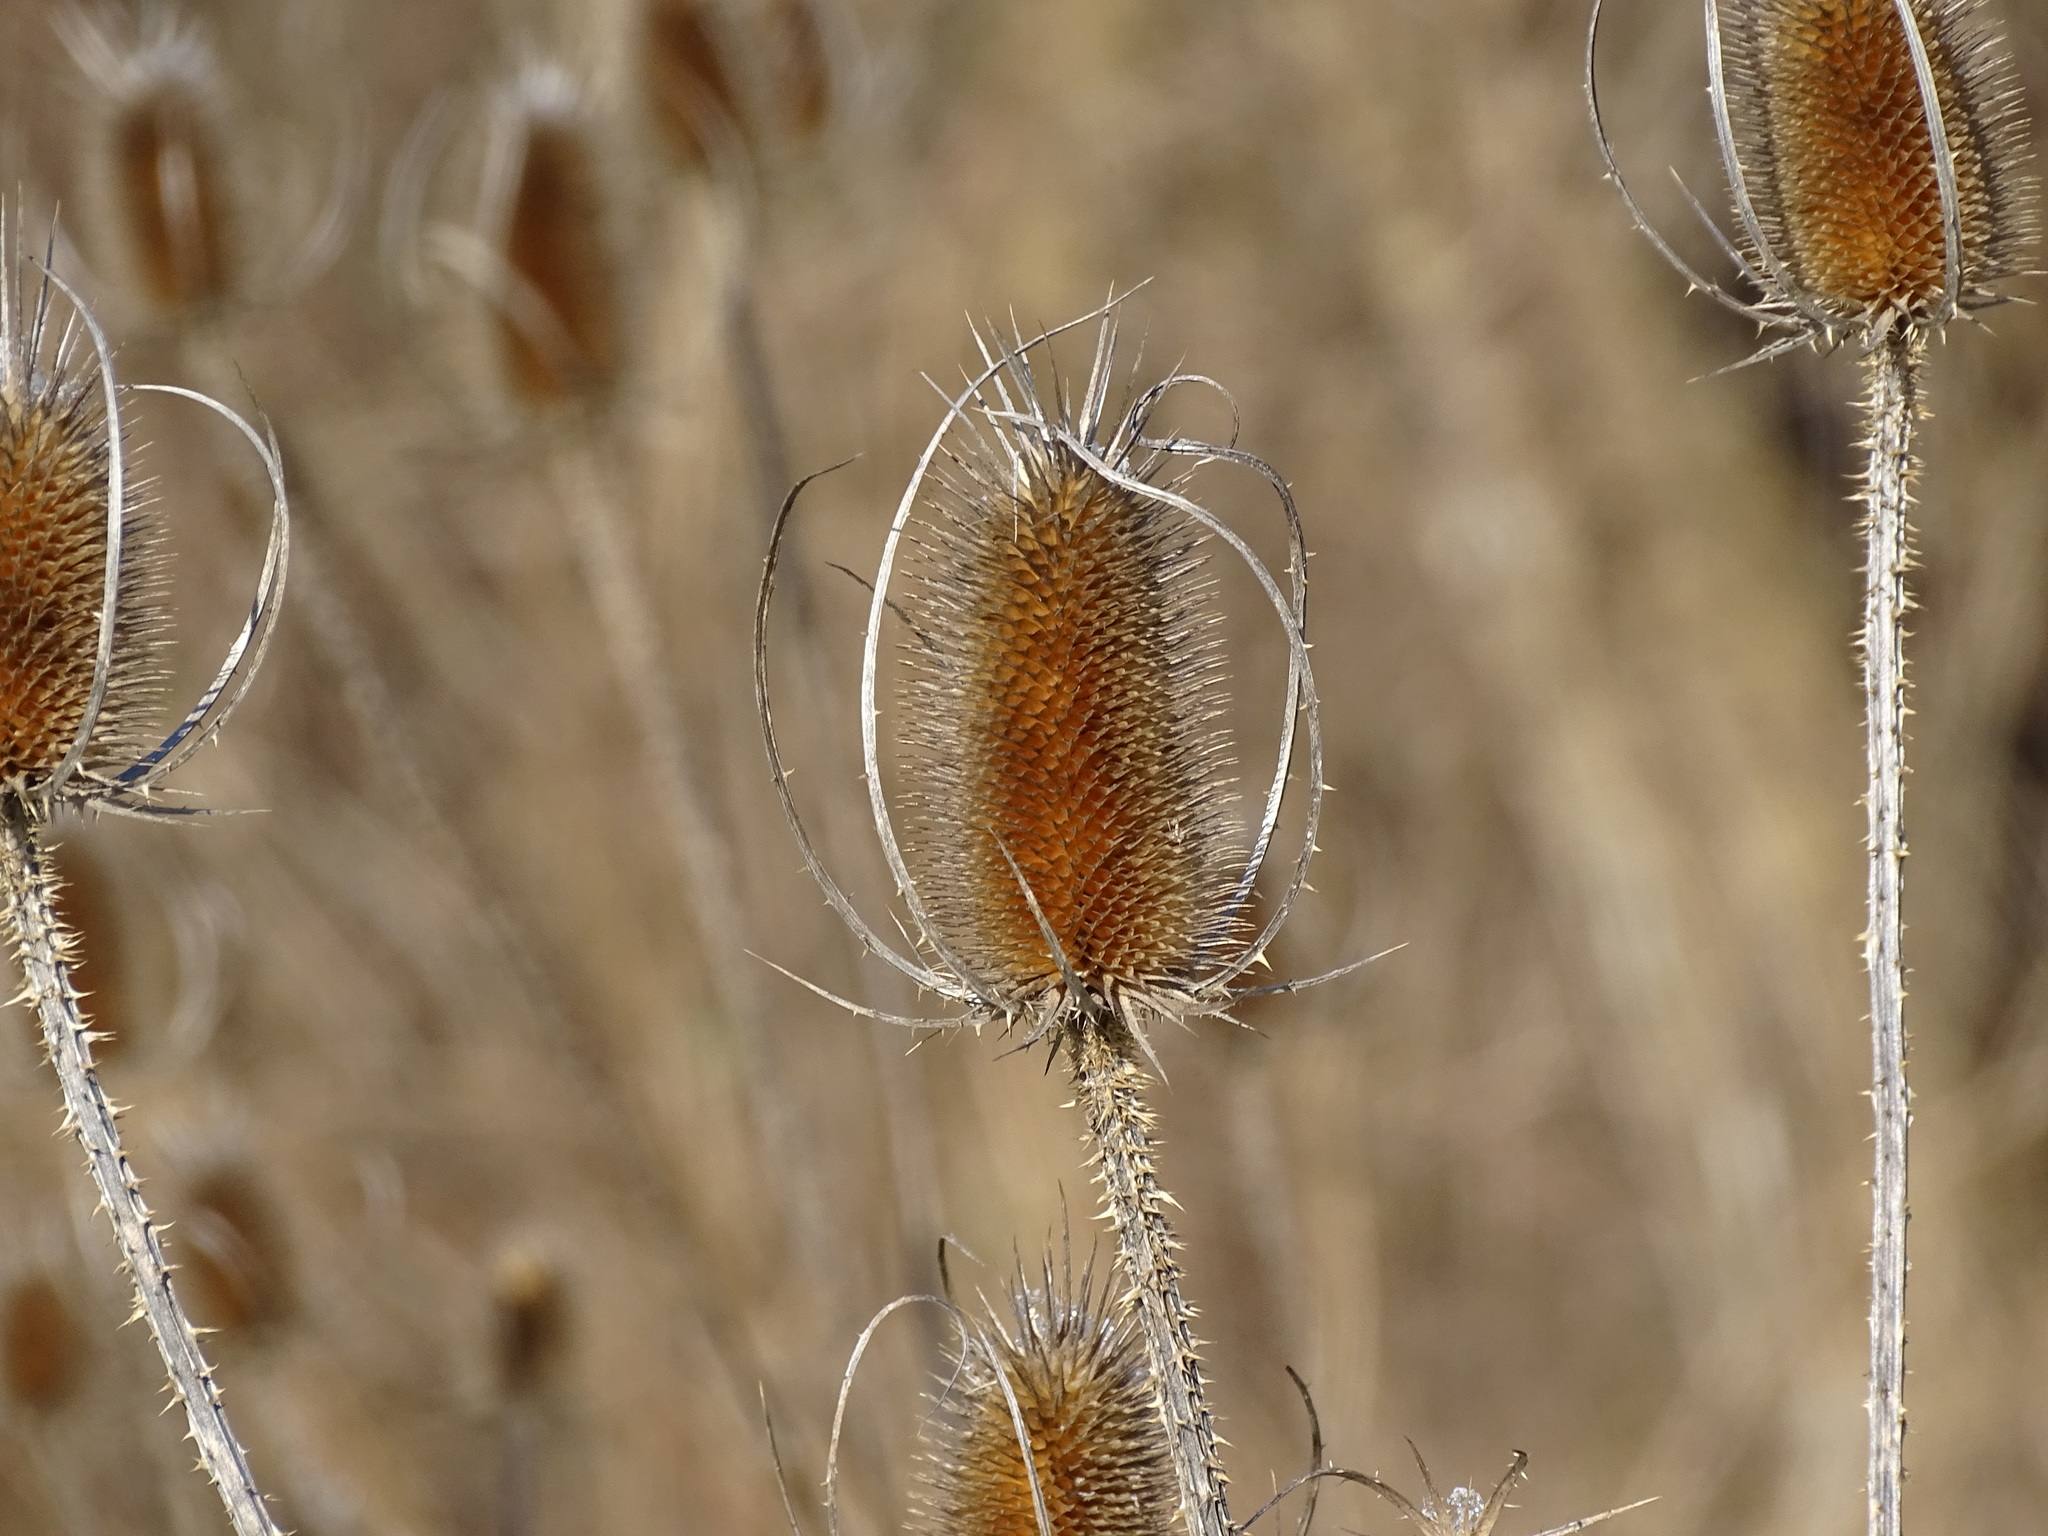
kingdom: Plantae
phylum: Tracheophyta
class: Magnoliopsida
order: Dipsacales
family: Caprifoliaceae
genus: Dipsacus
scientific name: Dipsacus fullonum
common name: Teasel
